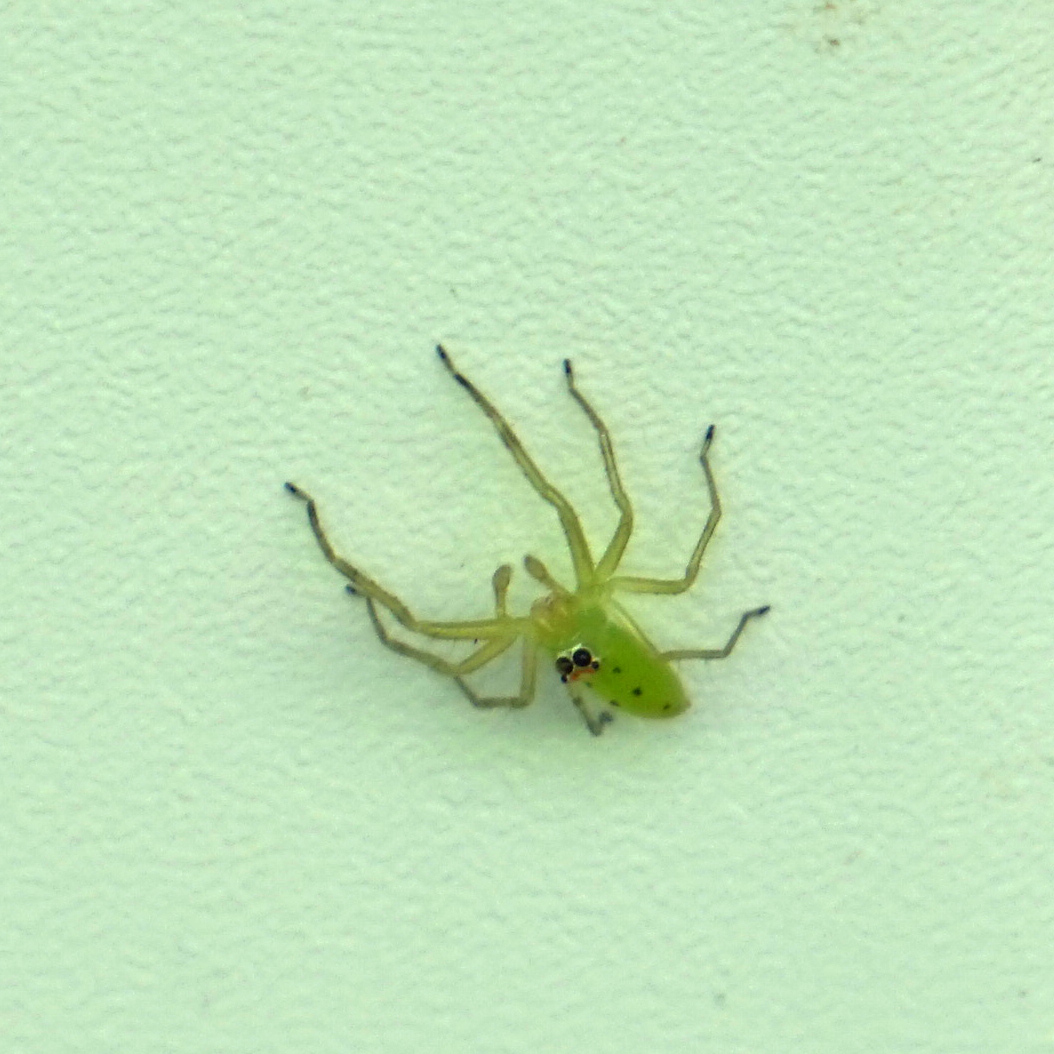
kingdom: Animalia
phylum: Arthropoda
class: Arachnida
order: Araneae
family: Salticidae
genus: Lyssomanes
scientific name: Lyssomanes viridis
